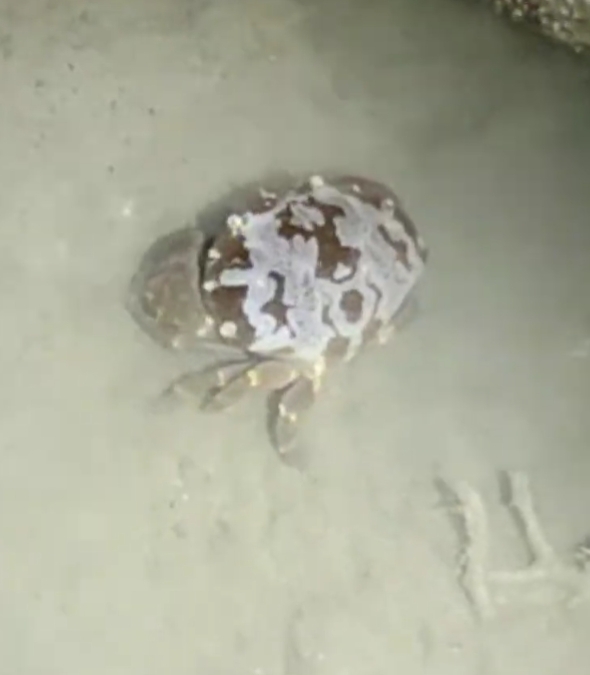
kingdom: Animalia
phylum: Arthropoda
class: Malacostraca
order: Decapoda
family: Xanthidae
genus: Atergatis
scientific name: Atergatis floridus
